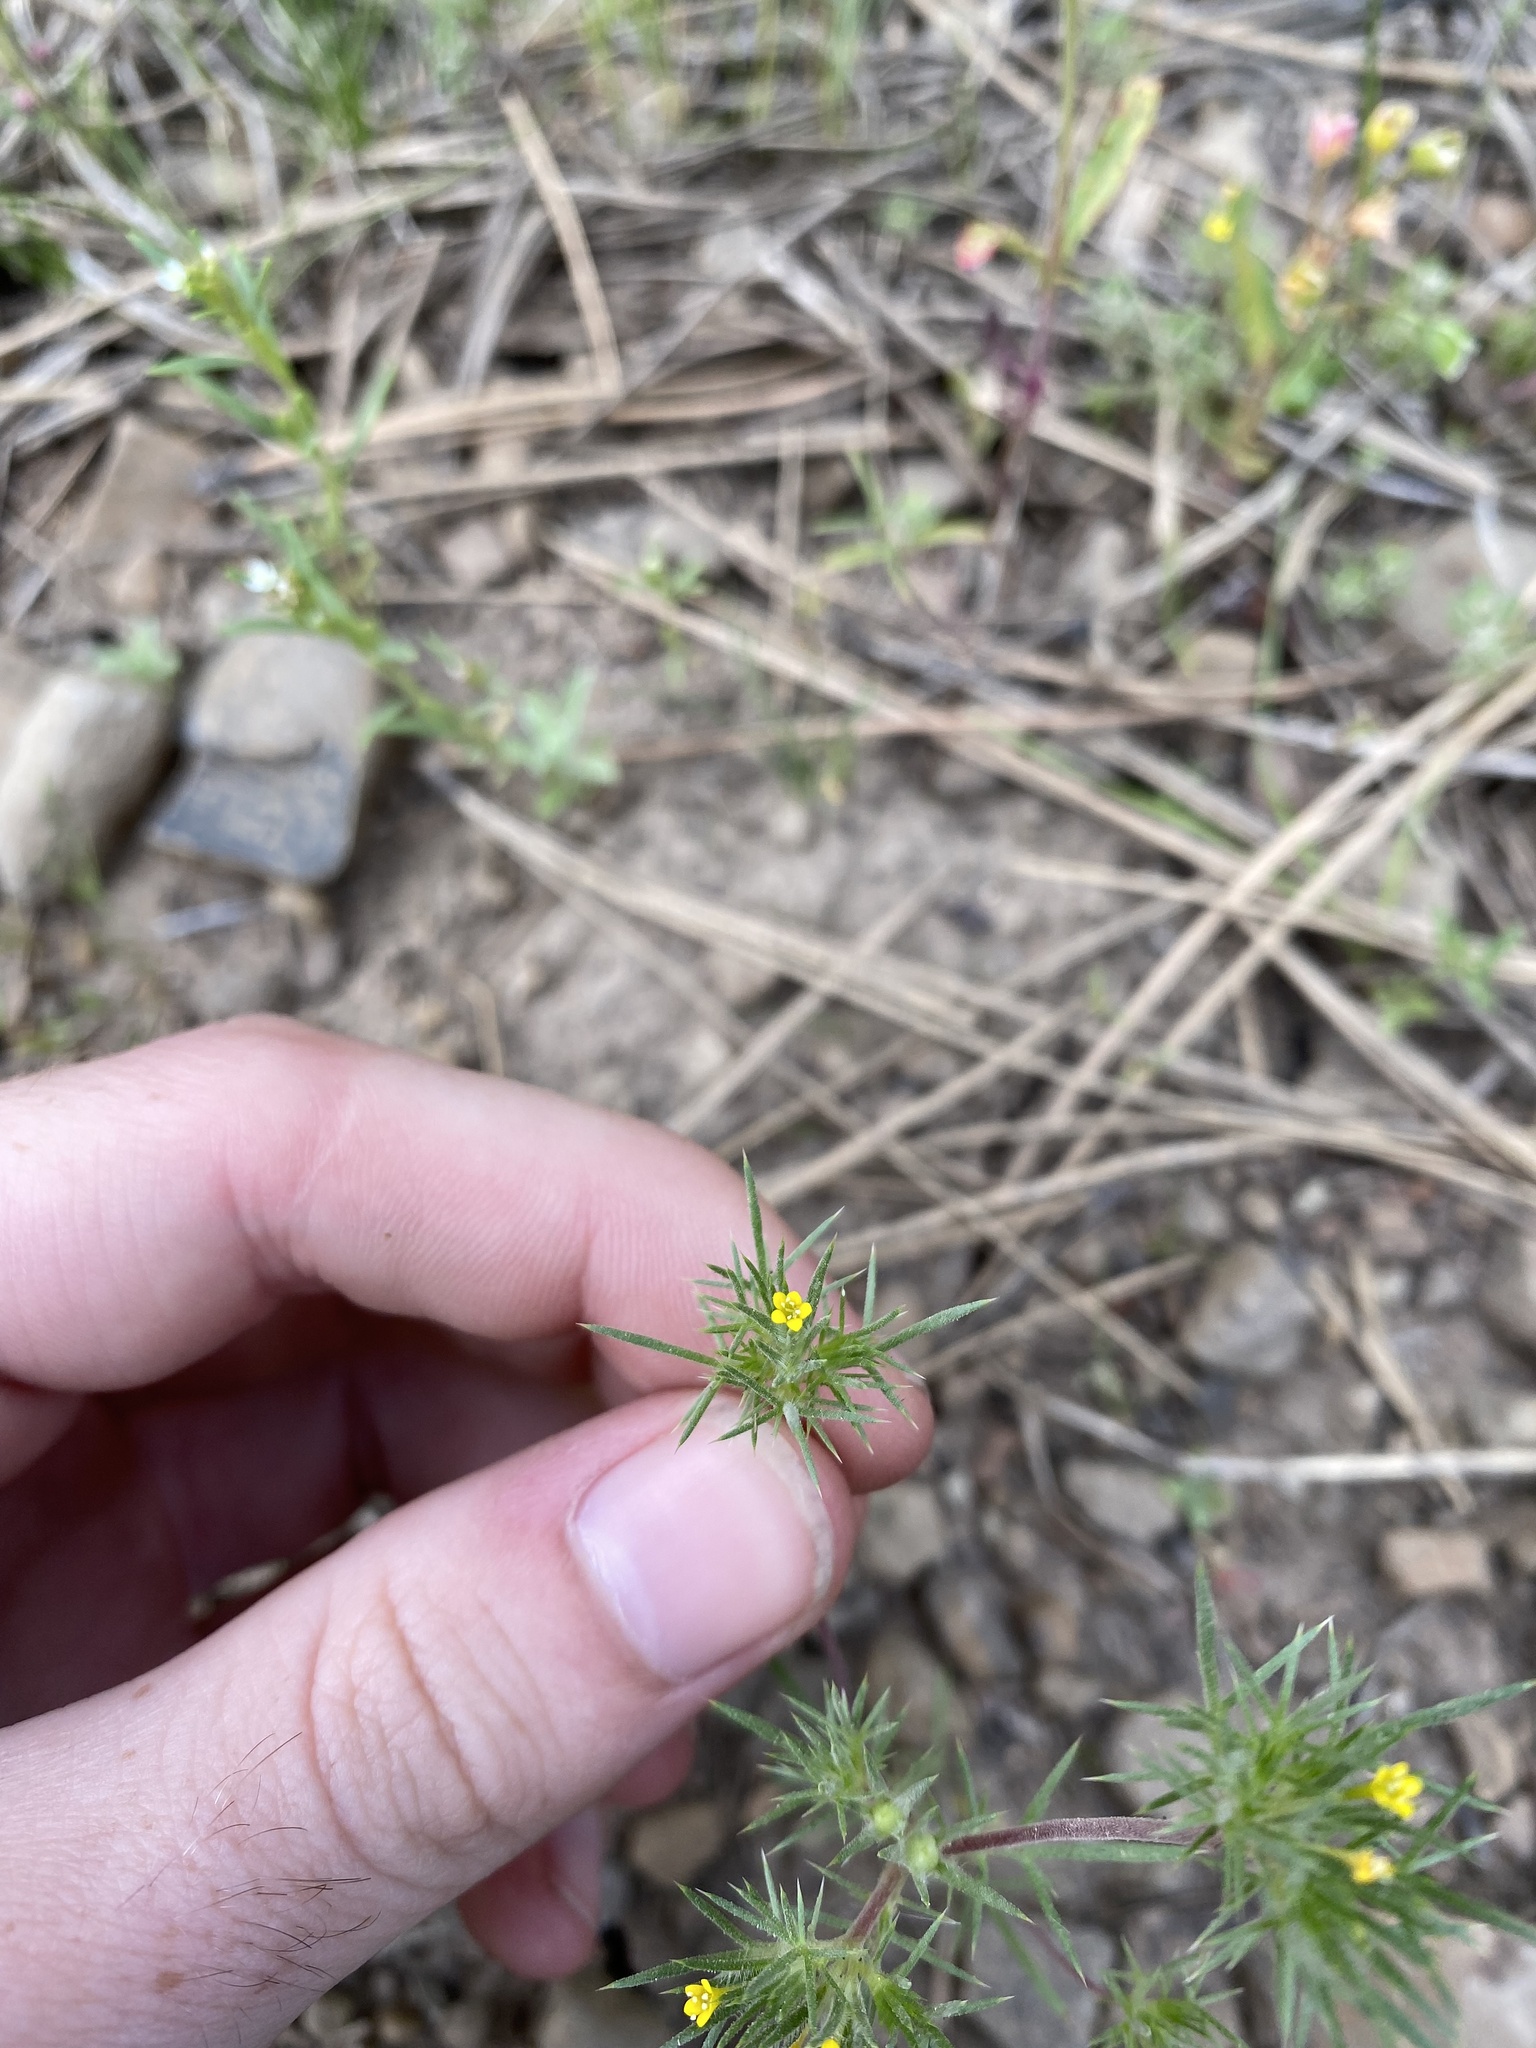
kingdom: Plantae
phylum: Tracheophyta
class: Magnoliopsida
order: Ericales
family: Polemoniaceae
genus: Navarretia
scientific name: Navarretia breweri
